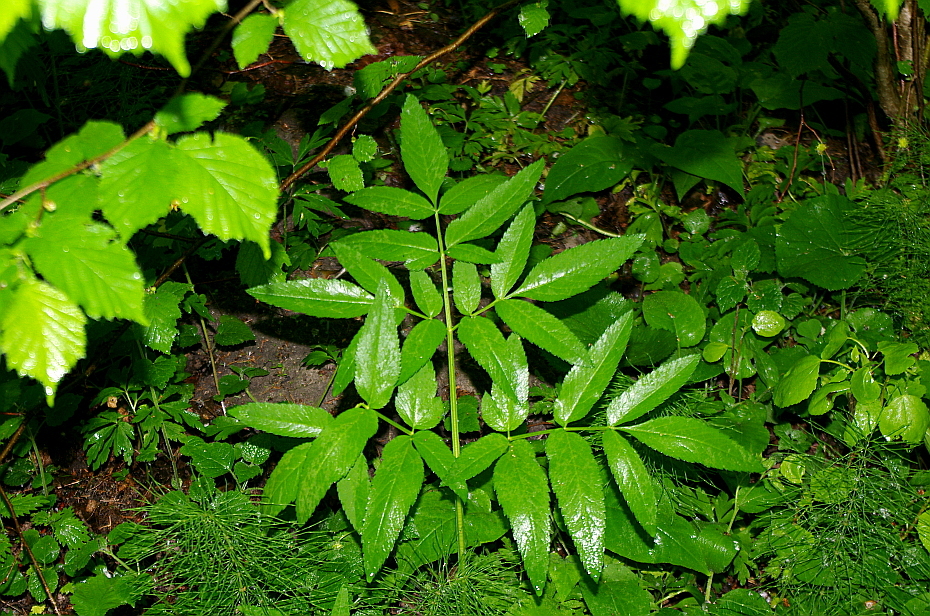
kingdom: Plantae
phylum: Tracheophyta
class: Magnoliopsida
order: Apiales
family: Apiaceae
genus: Angelica
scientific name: Angelica sylvestris
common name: Wild angelica
